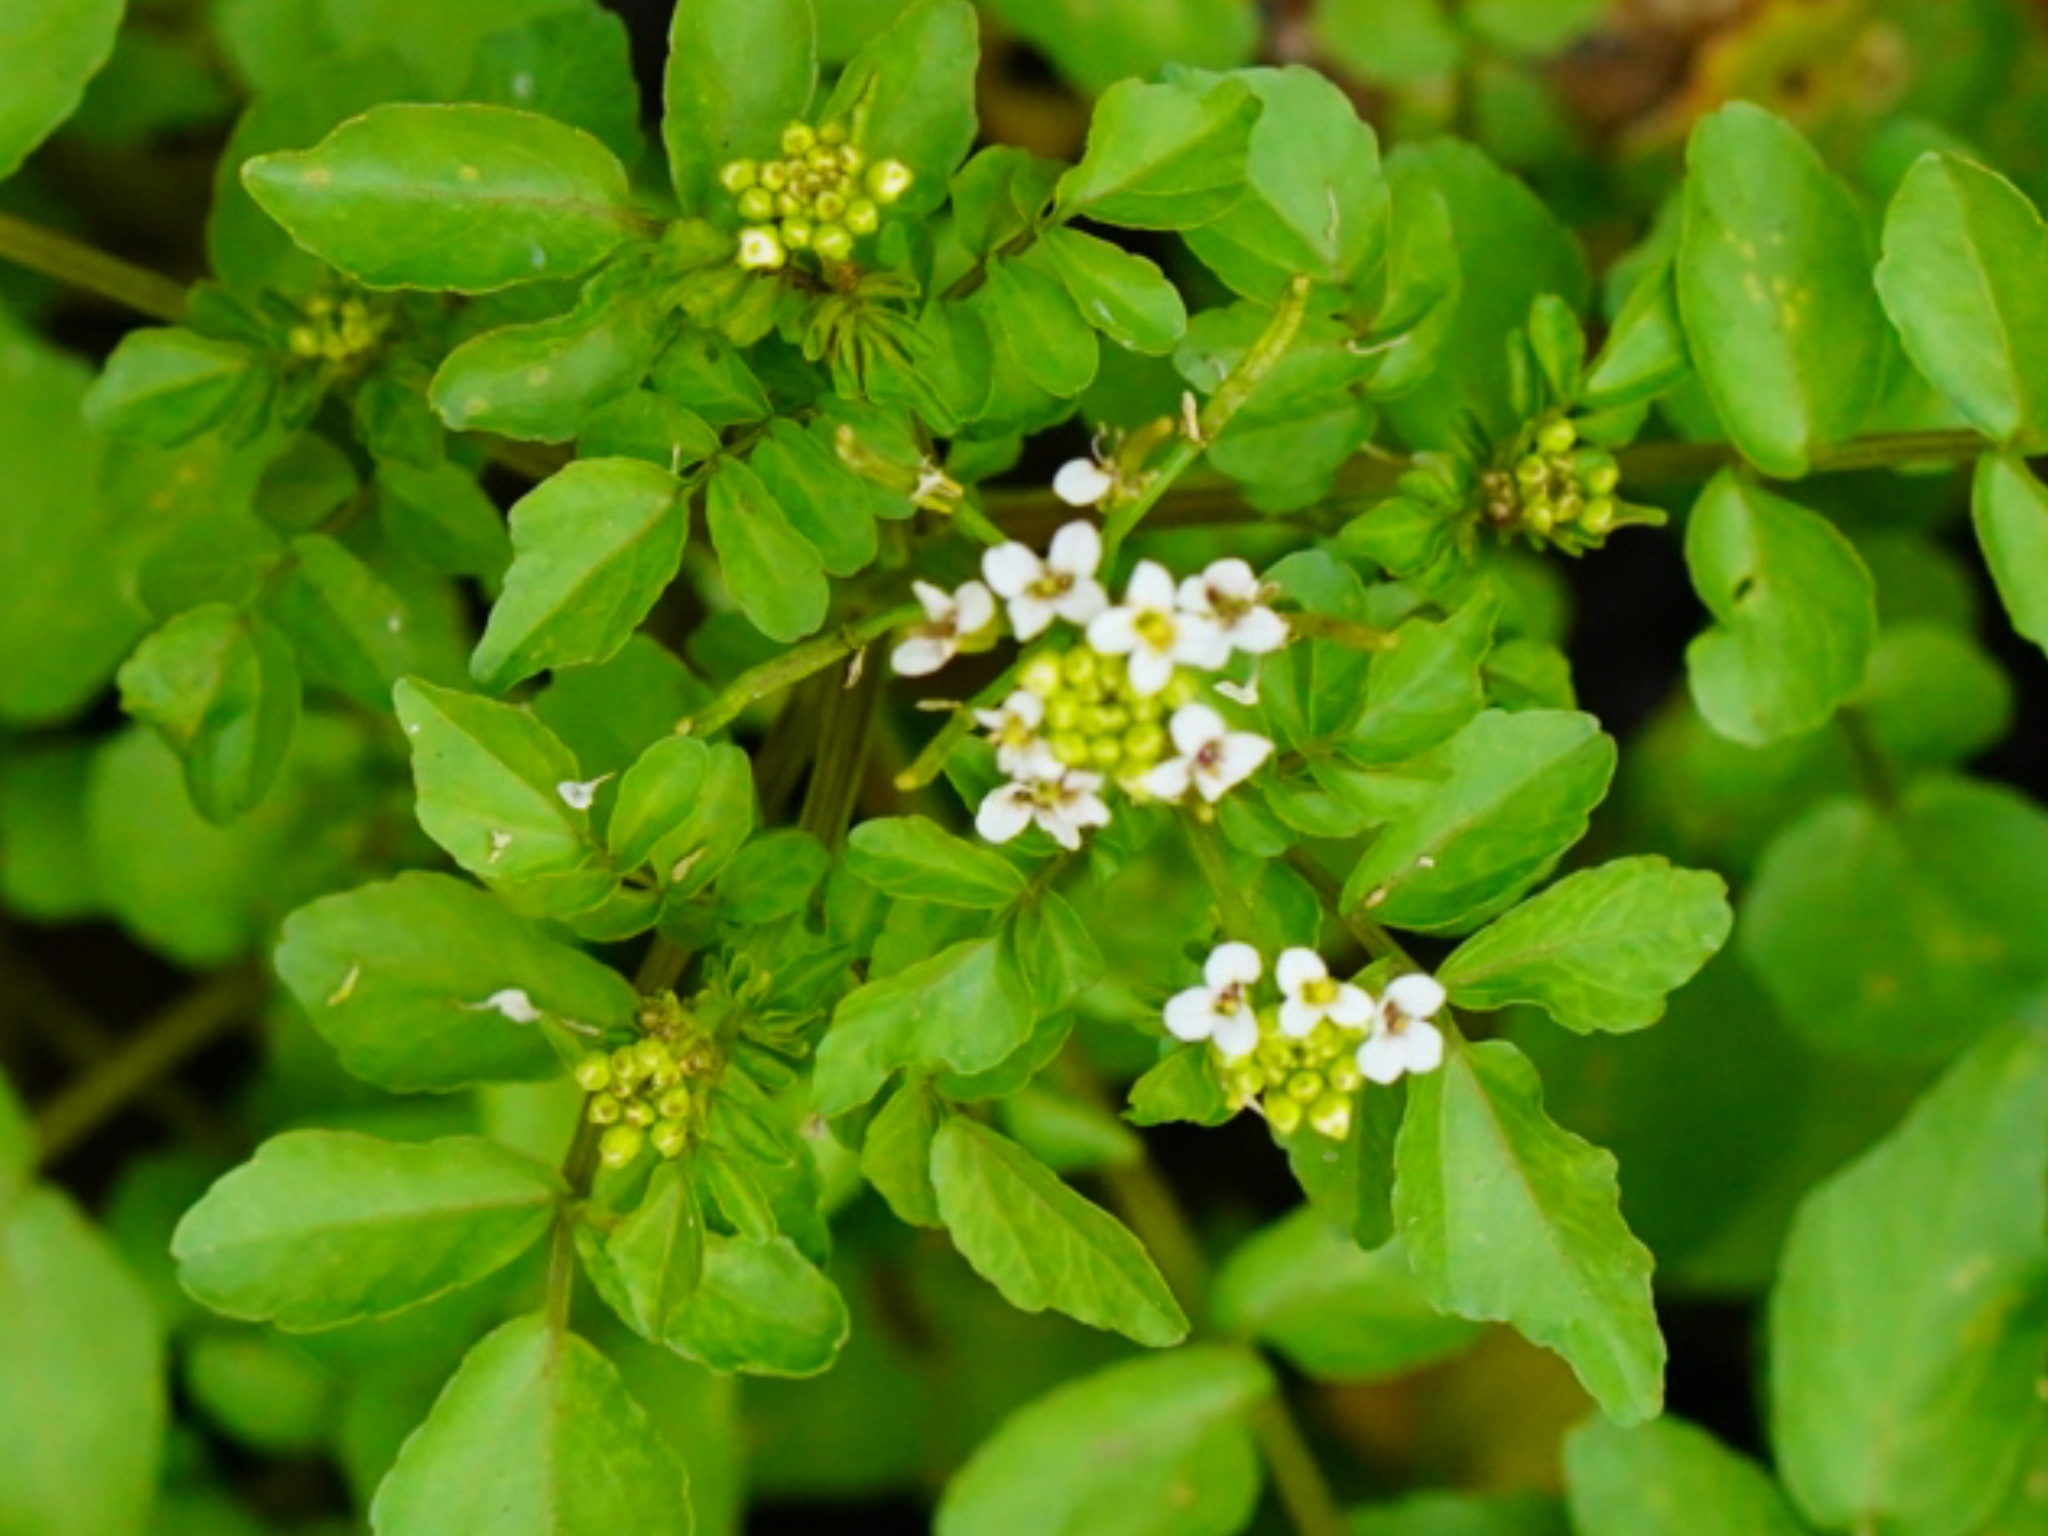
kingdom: Plantae
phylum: Tracheophyta
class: Magnoliopsida
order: Brassicales
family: Brassicaceae
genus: Nasturtium
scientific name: Nasturtium officinale
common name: Watercress
